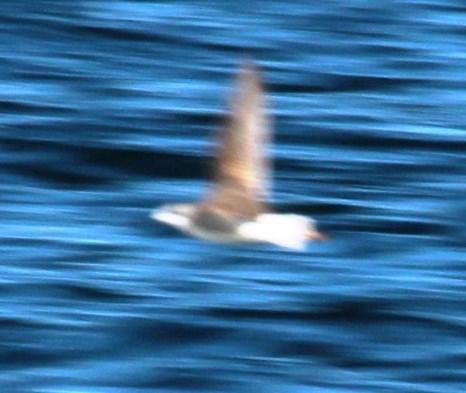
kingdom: Animalia
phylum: Chordata
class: Aves
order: Charadriiformes
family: Scolopacidae
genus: Phalaropus
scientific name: Phalaropus tricolor
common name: Wilson's phalarope
